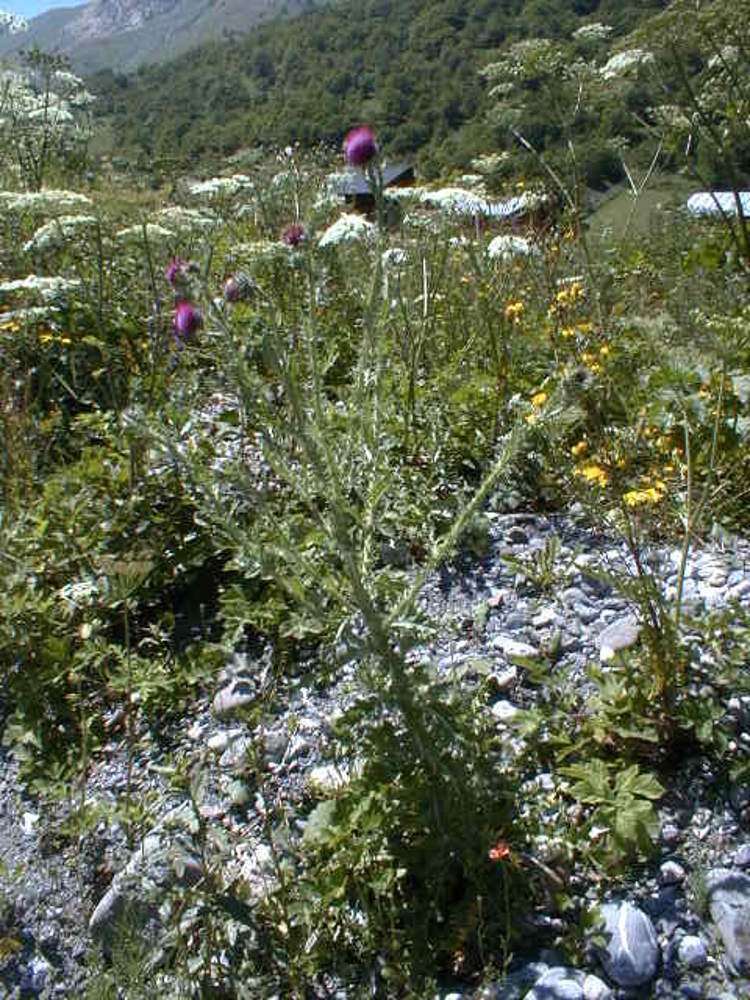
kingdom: Plantae
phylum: Tracheophyta
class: Magnoliopsida
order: Asterales
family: Asteraceae
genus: Carduus
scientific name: Carduus nutans
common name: Musk thistle
